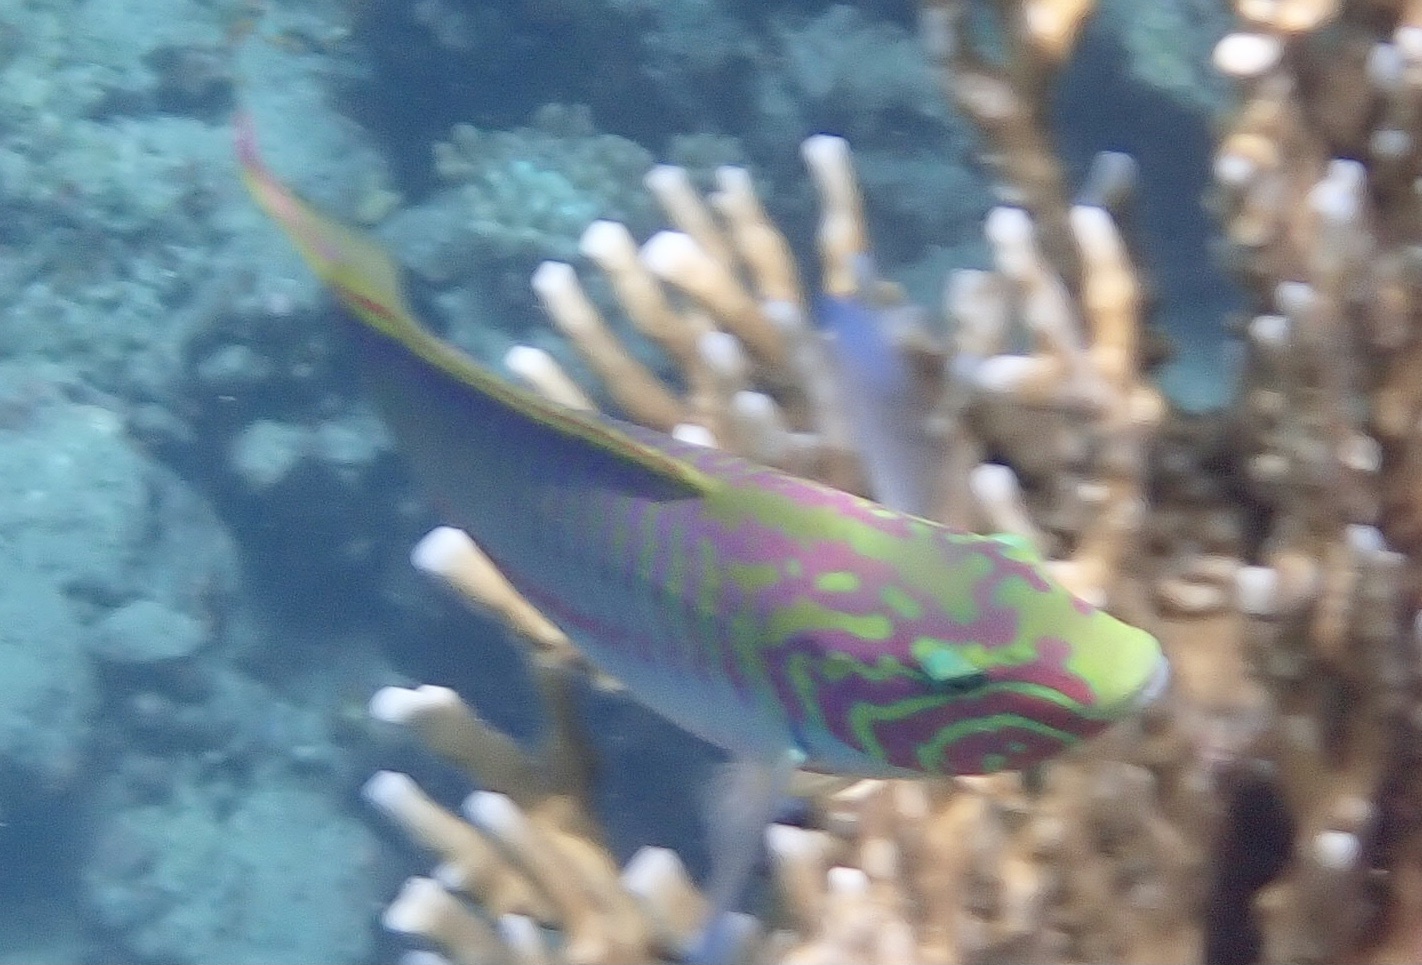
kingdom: Animalia
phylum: Chordata
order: Perciformes
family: Labridae
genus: Thalassoma
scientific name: Thalassoma rueppellii
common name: Klunzinger's wrasse
